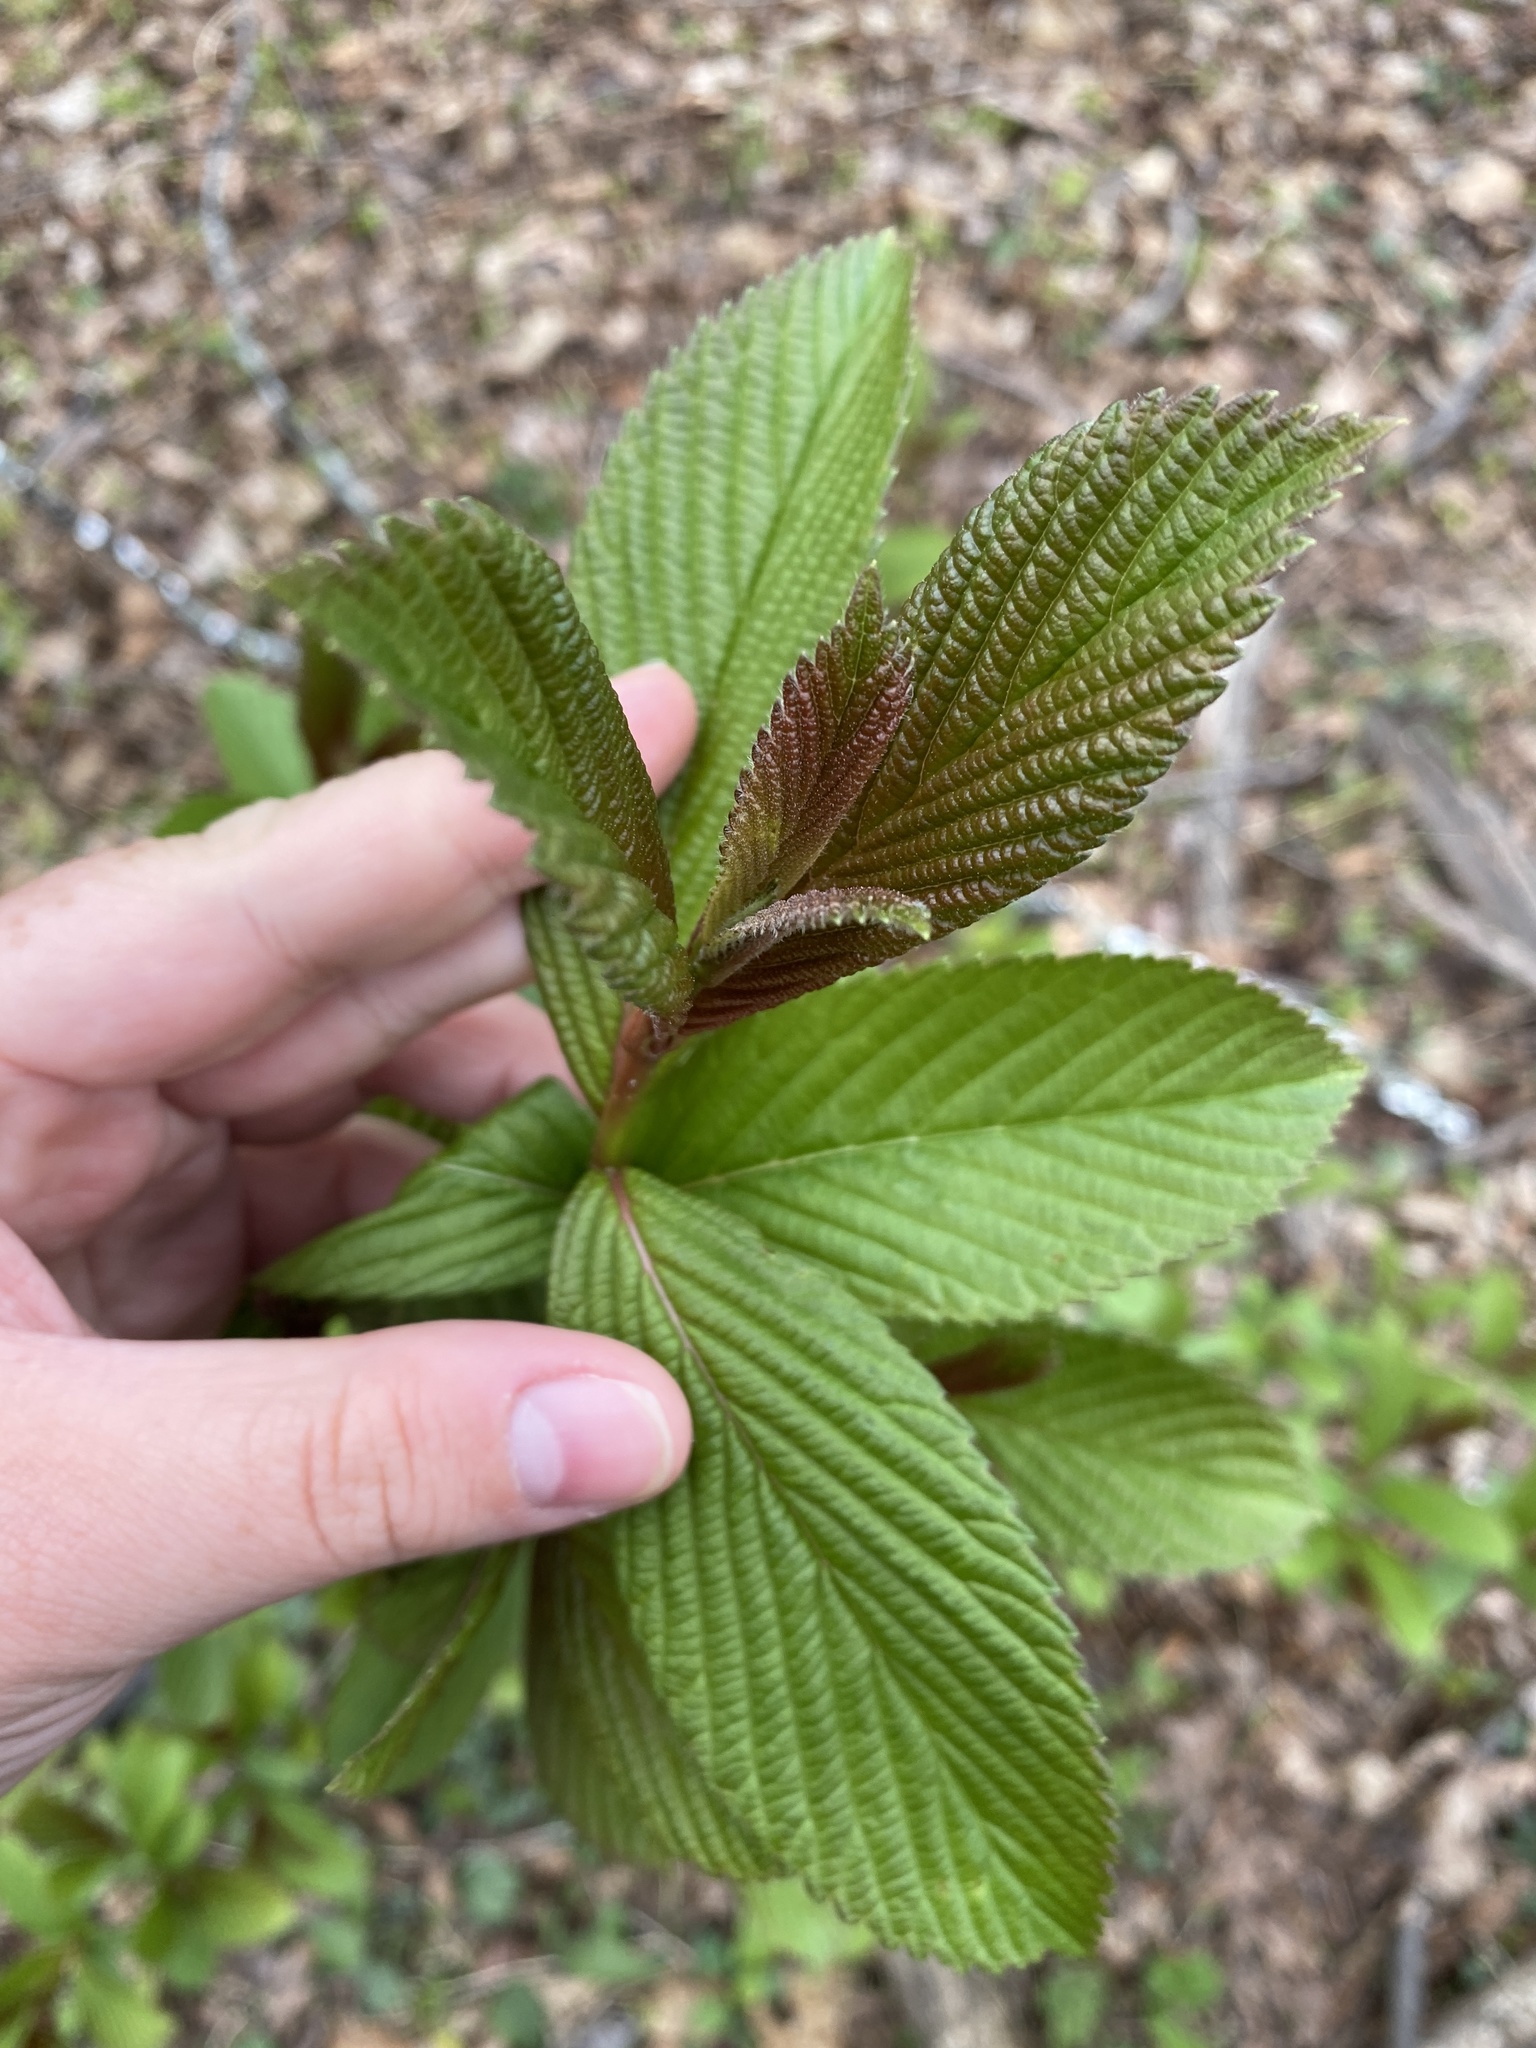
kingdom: Plantae
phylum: Tracheophyta
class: Magnoliopsida
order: Dipsacales
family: Viburnaceae
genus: Viburnum
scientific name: Viburnum sieboldii
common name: Siebold's arrowwood
